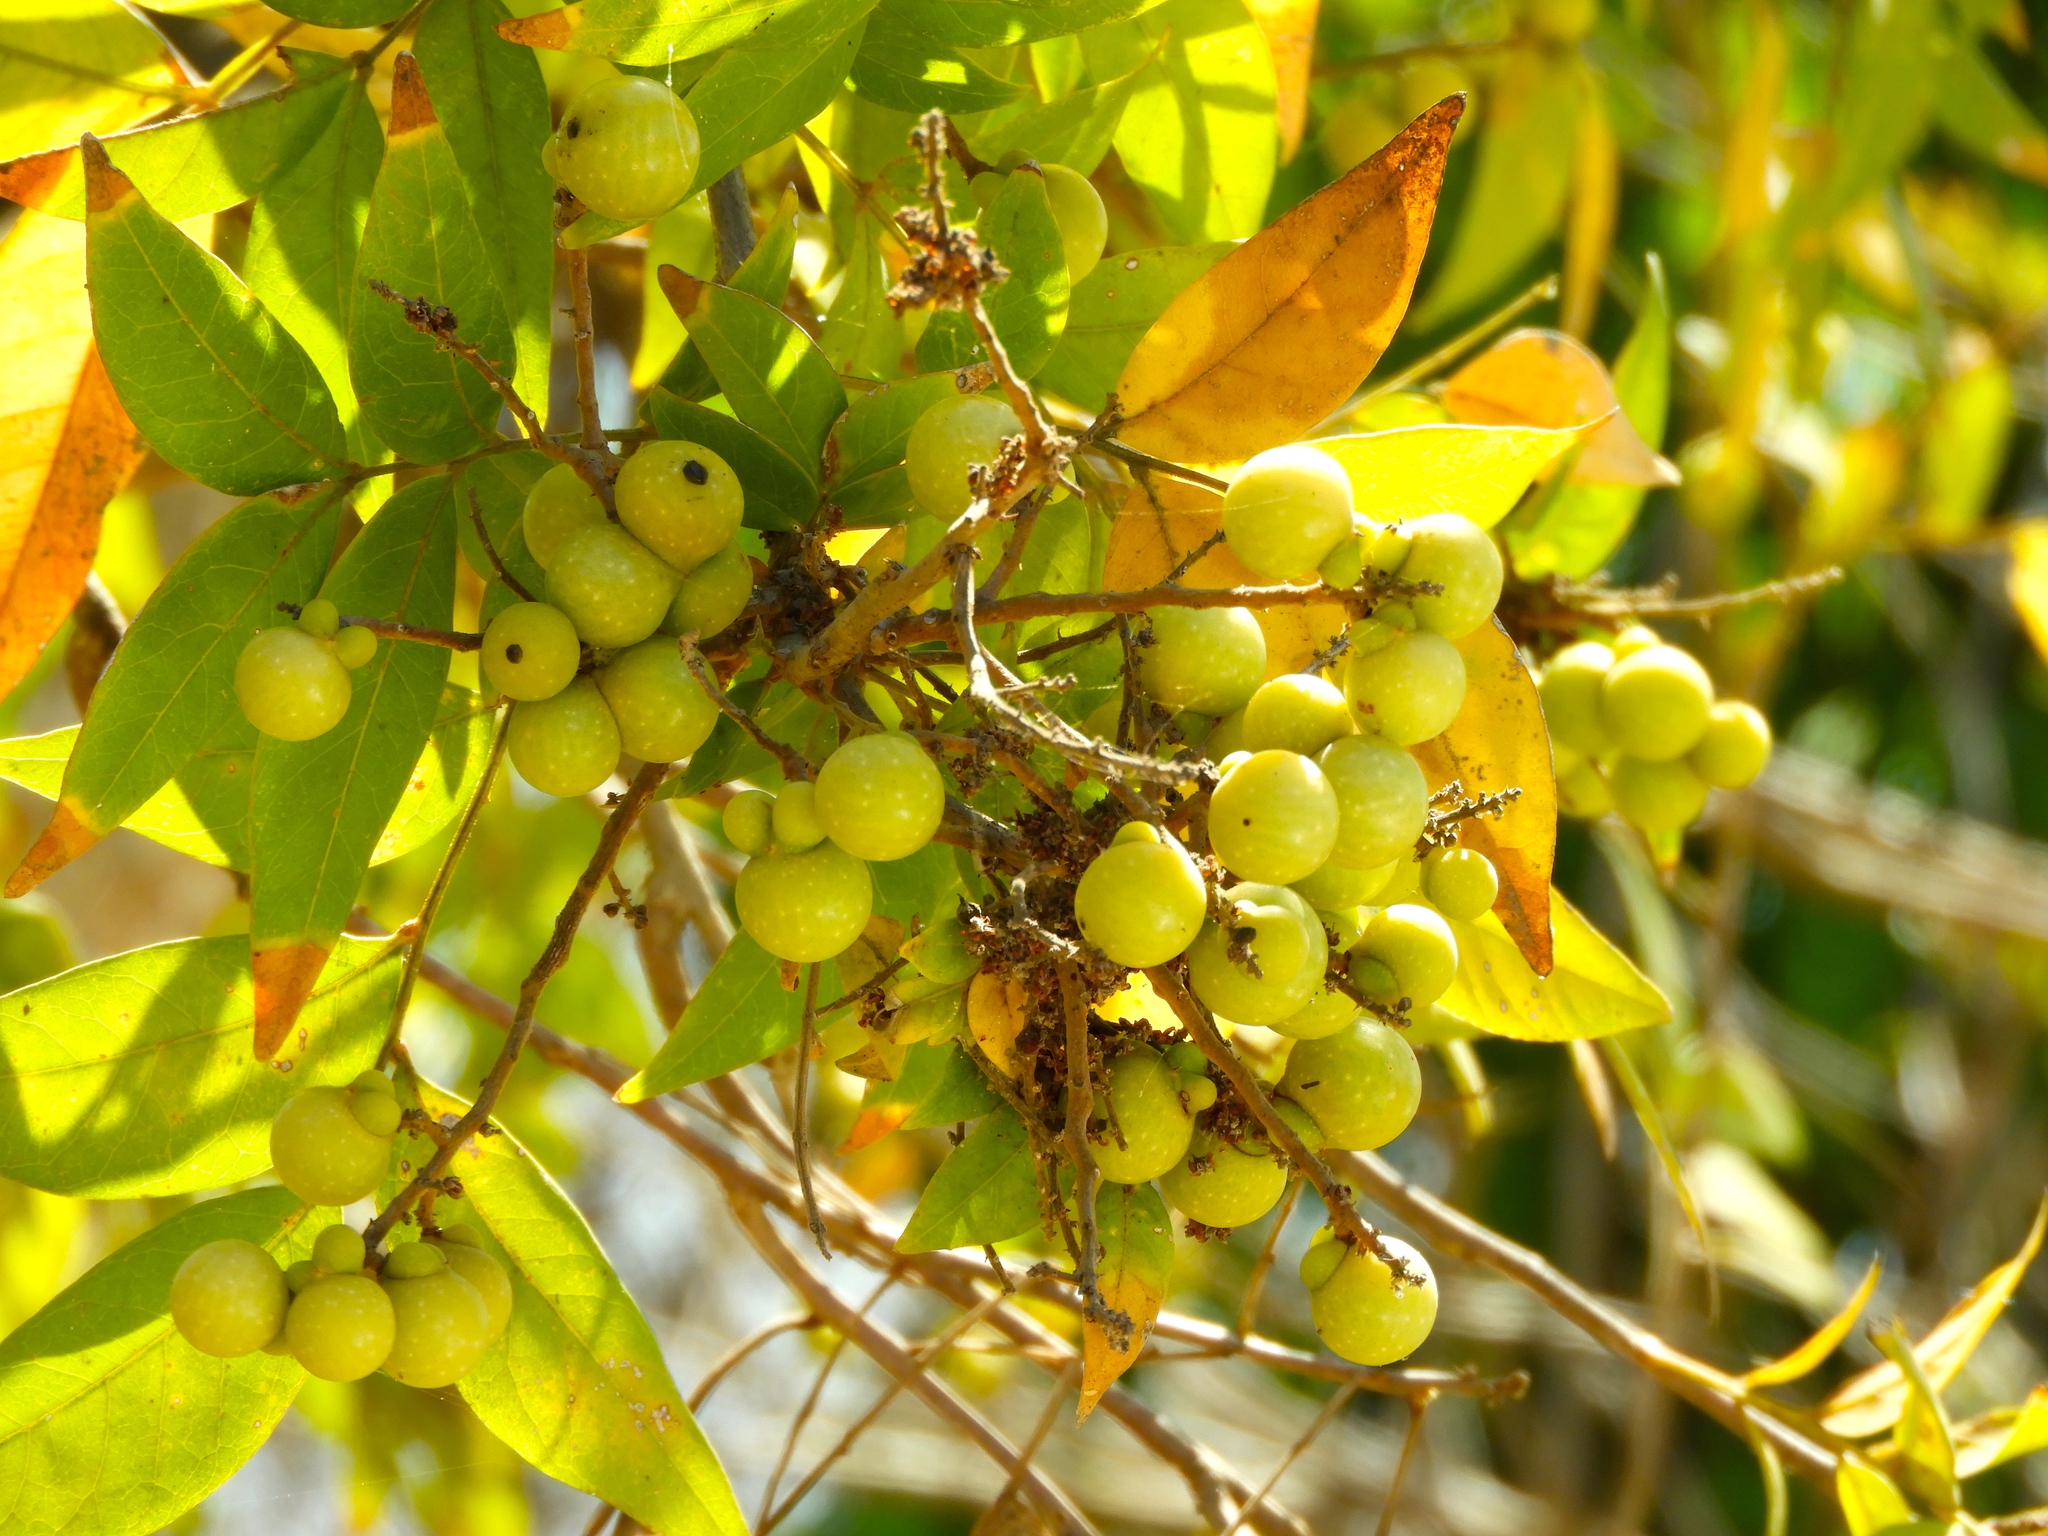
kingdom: Plantae
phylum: Tracheophyta
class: Magnoliopsida
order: Sapindales
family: Sapindaceae
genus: Sapindus
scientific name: Sapindus drummondii
